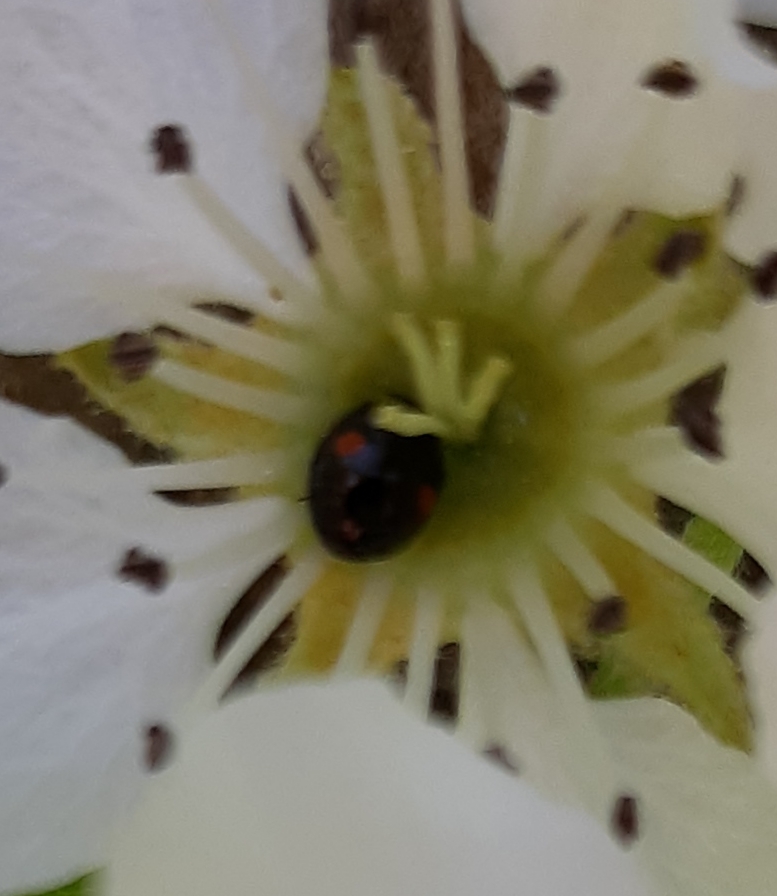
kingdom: Animalia
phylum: Arthropoda
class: Insecta
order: Coleoptera
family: Coccinellidae
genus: Chilocorus
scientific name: Chilocorus stigma
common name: Twicestabbed lady beetle
